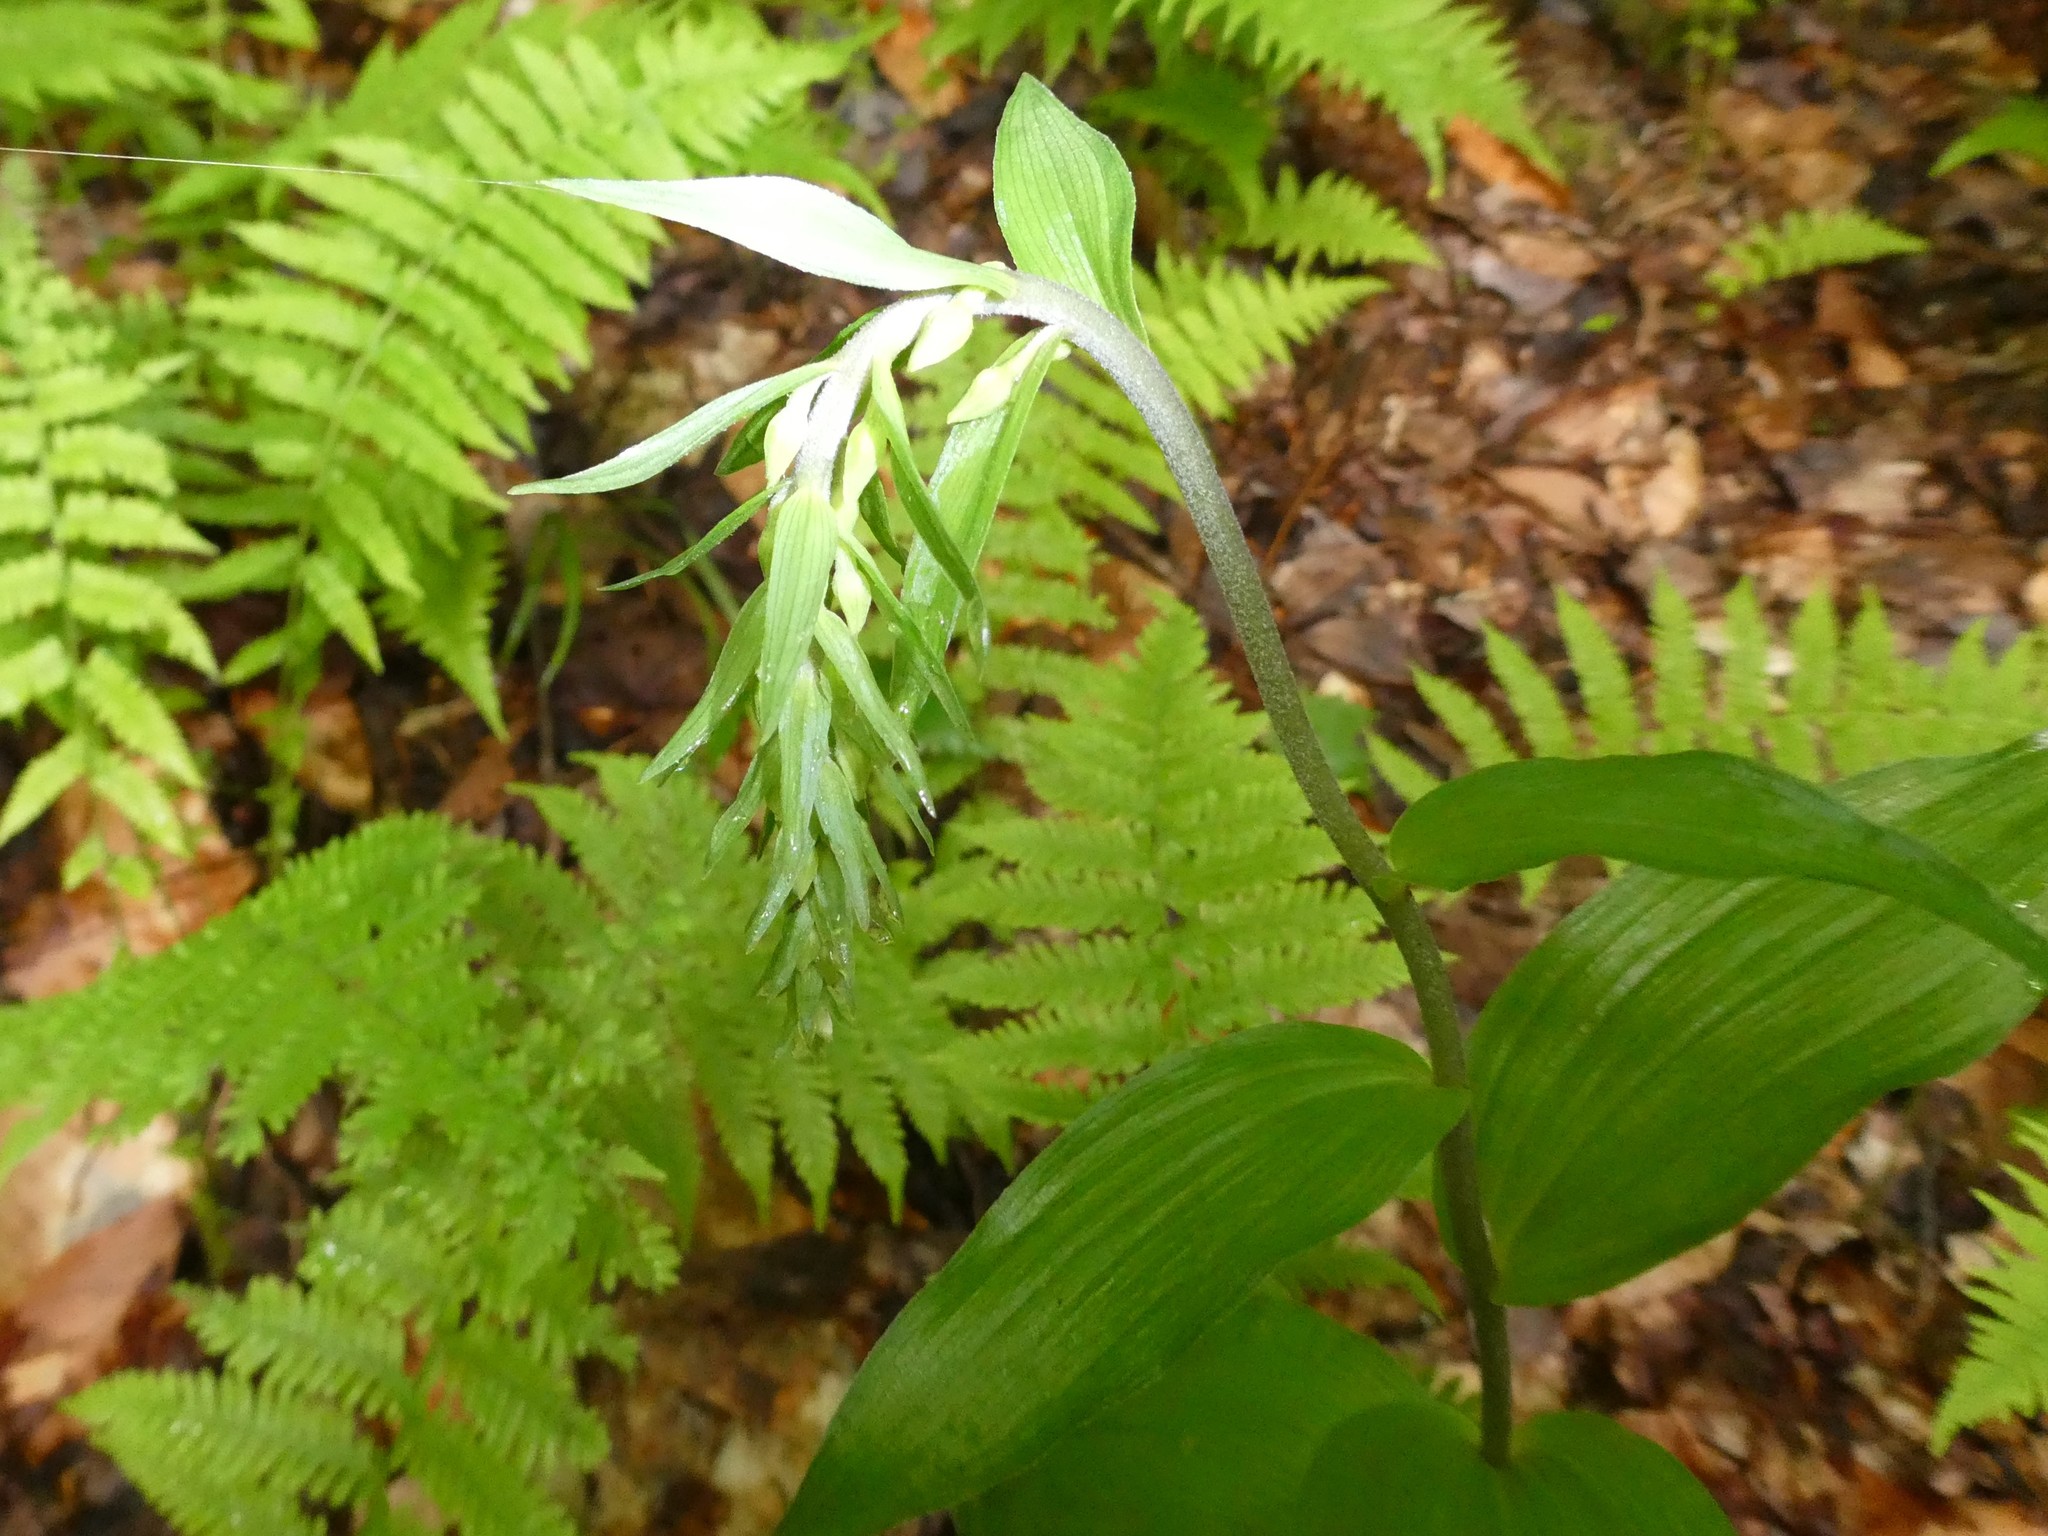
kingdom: Plantae
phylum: Tracheophyta
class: Liliopsida
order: Asparagales
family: Orchidaceae
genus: Epipactis
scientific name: Epipactis helleborine
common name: Broad-leaved helleborine
